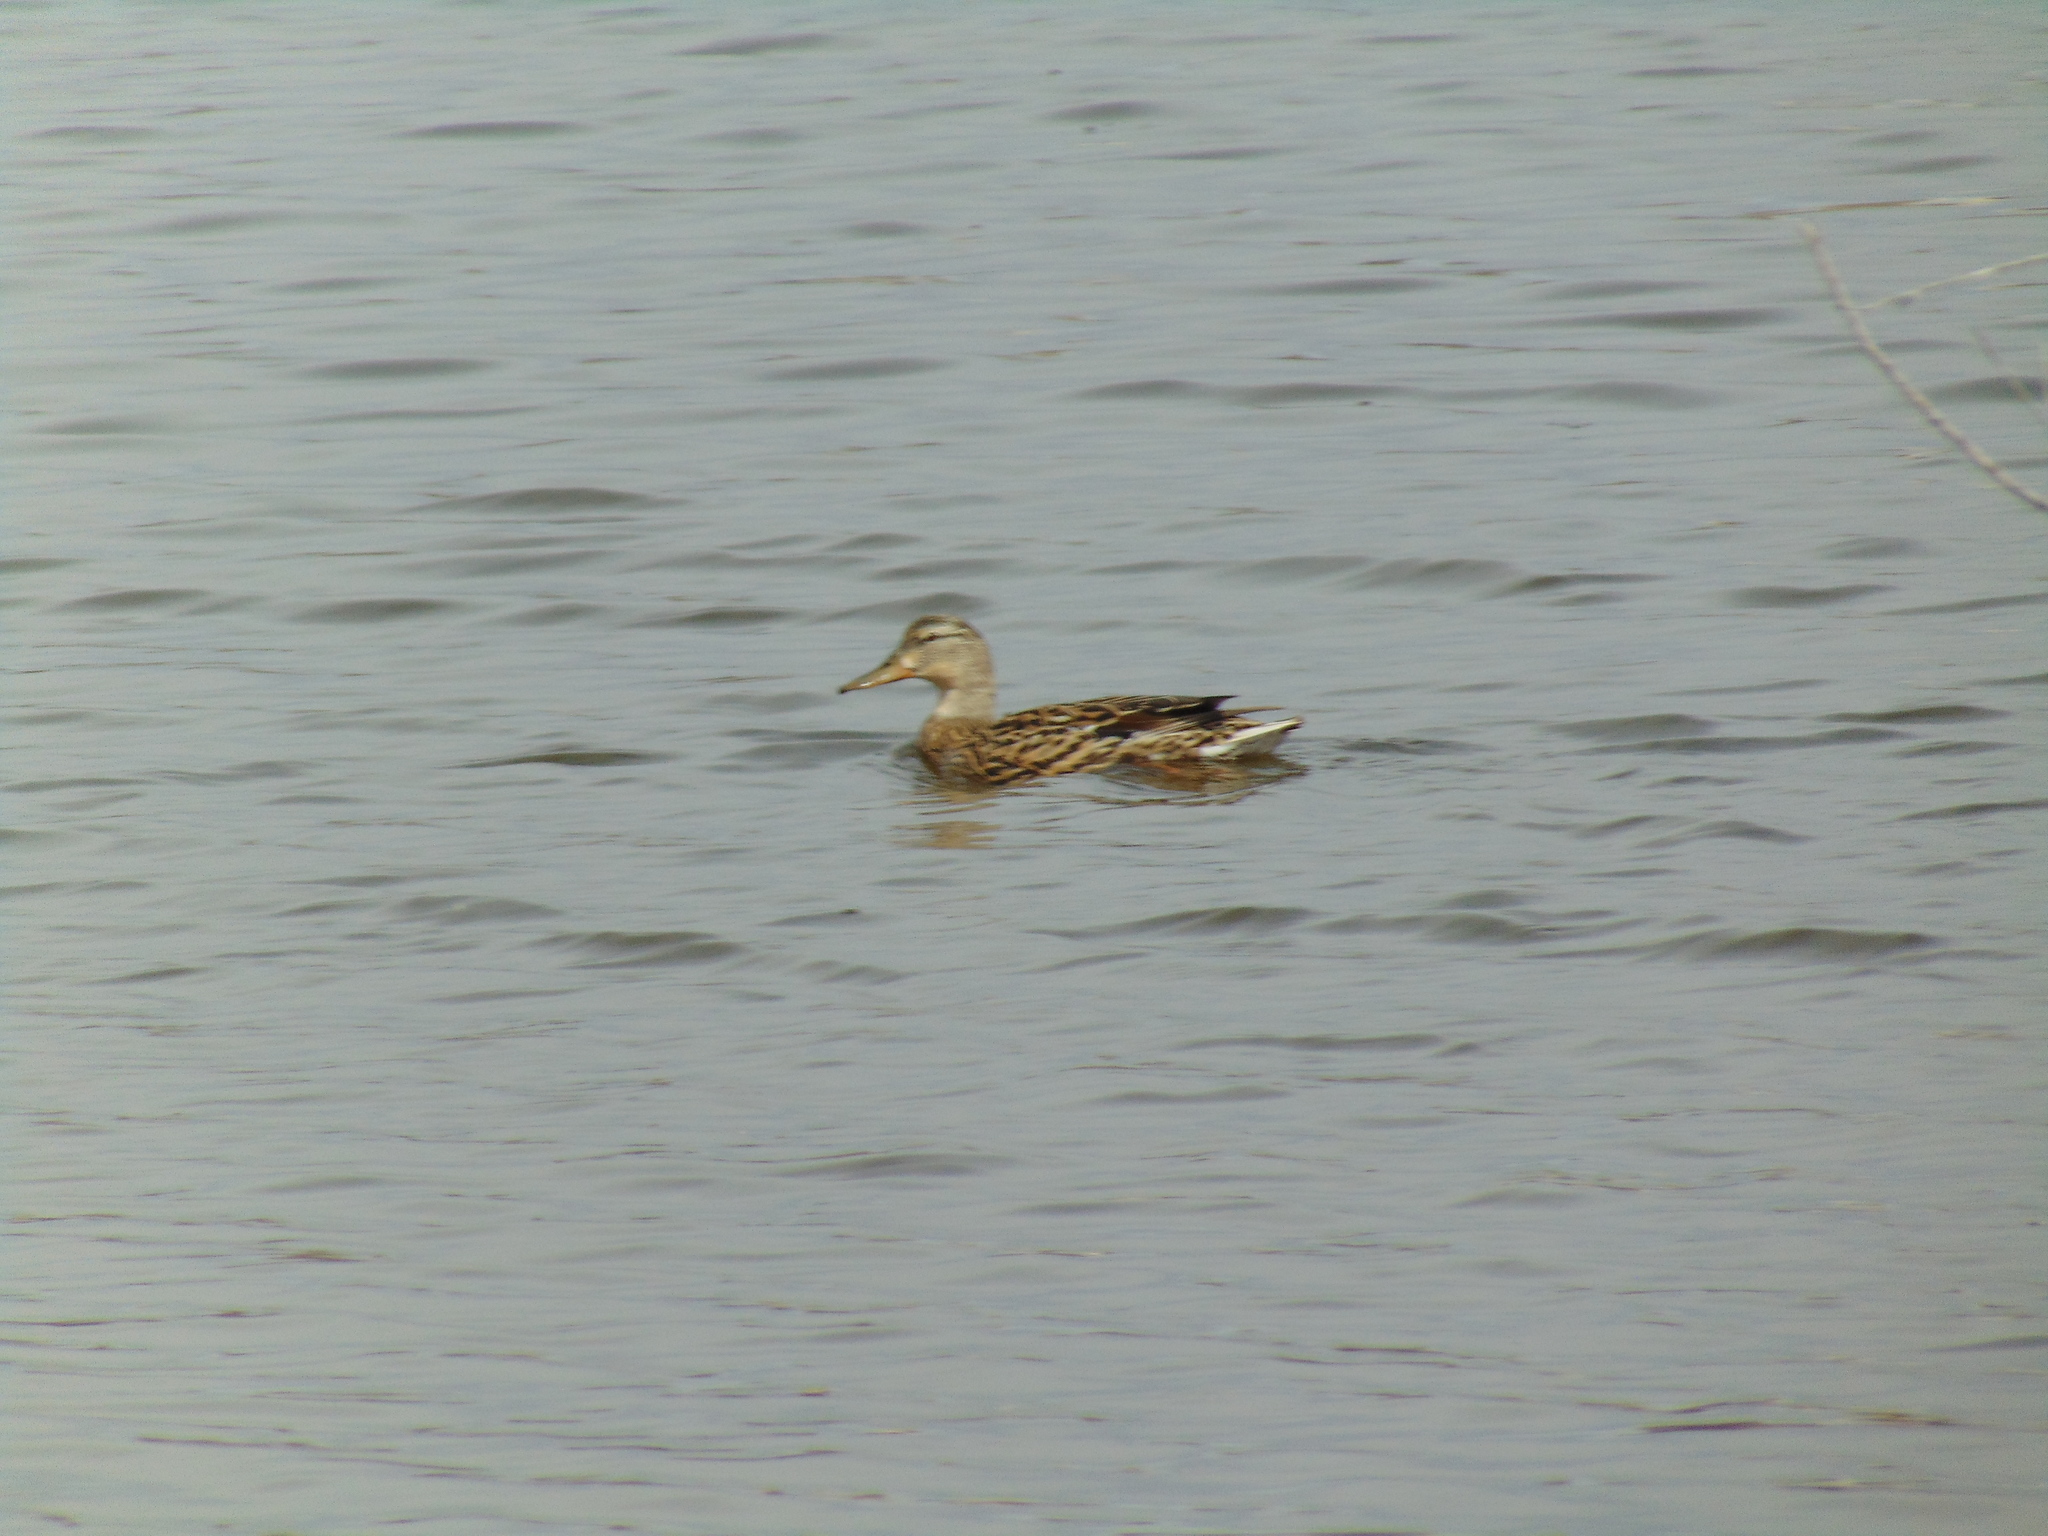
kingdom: Animalia
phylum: Chordata
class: Aves
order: Anseriformes
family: Anatidae
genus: Anas
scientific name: Anas platyrhynchos
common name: Mallard
